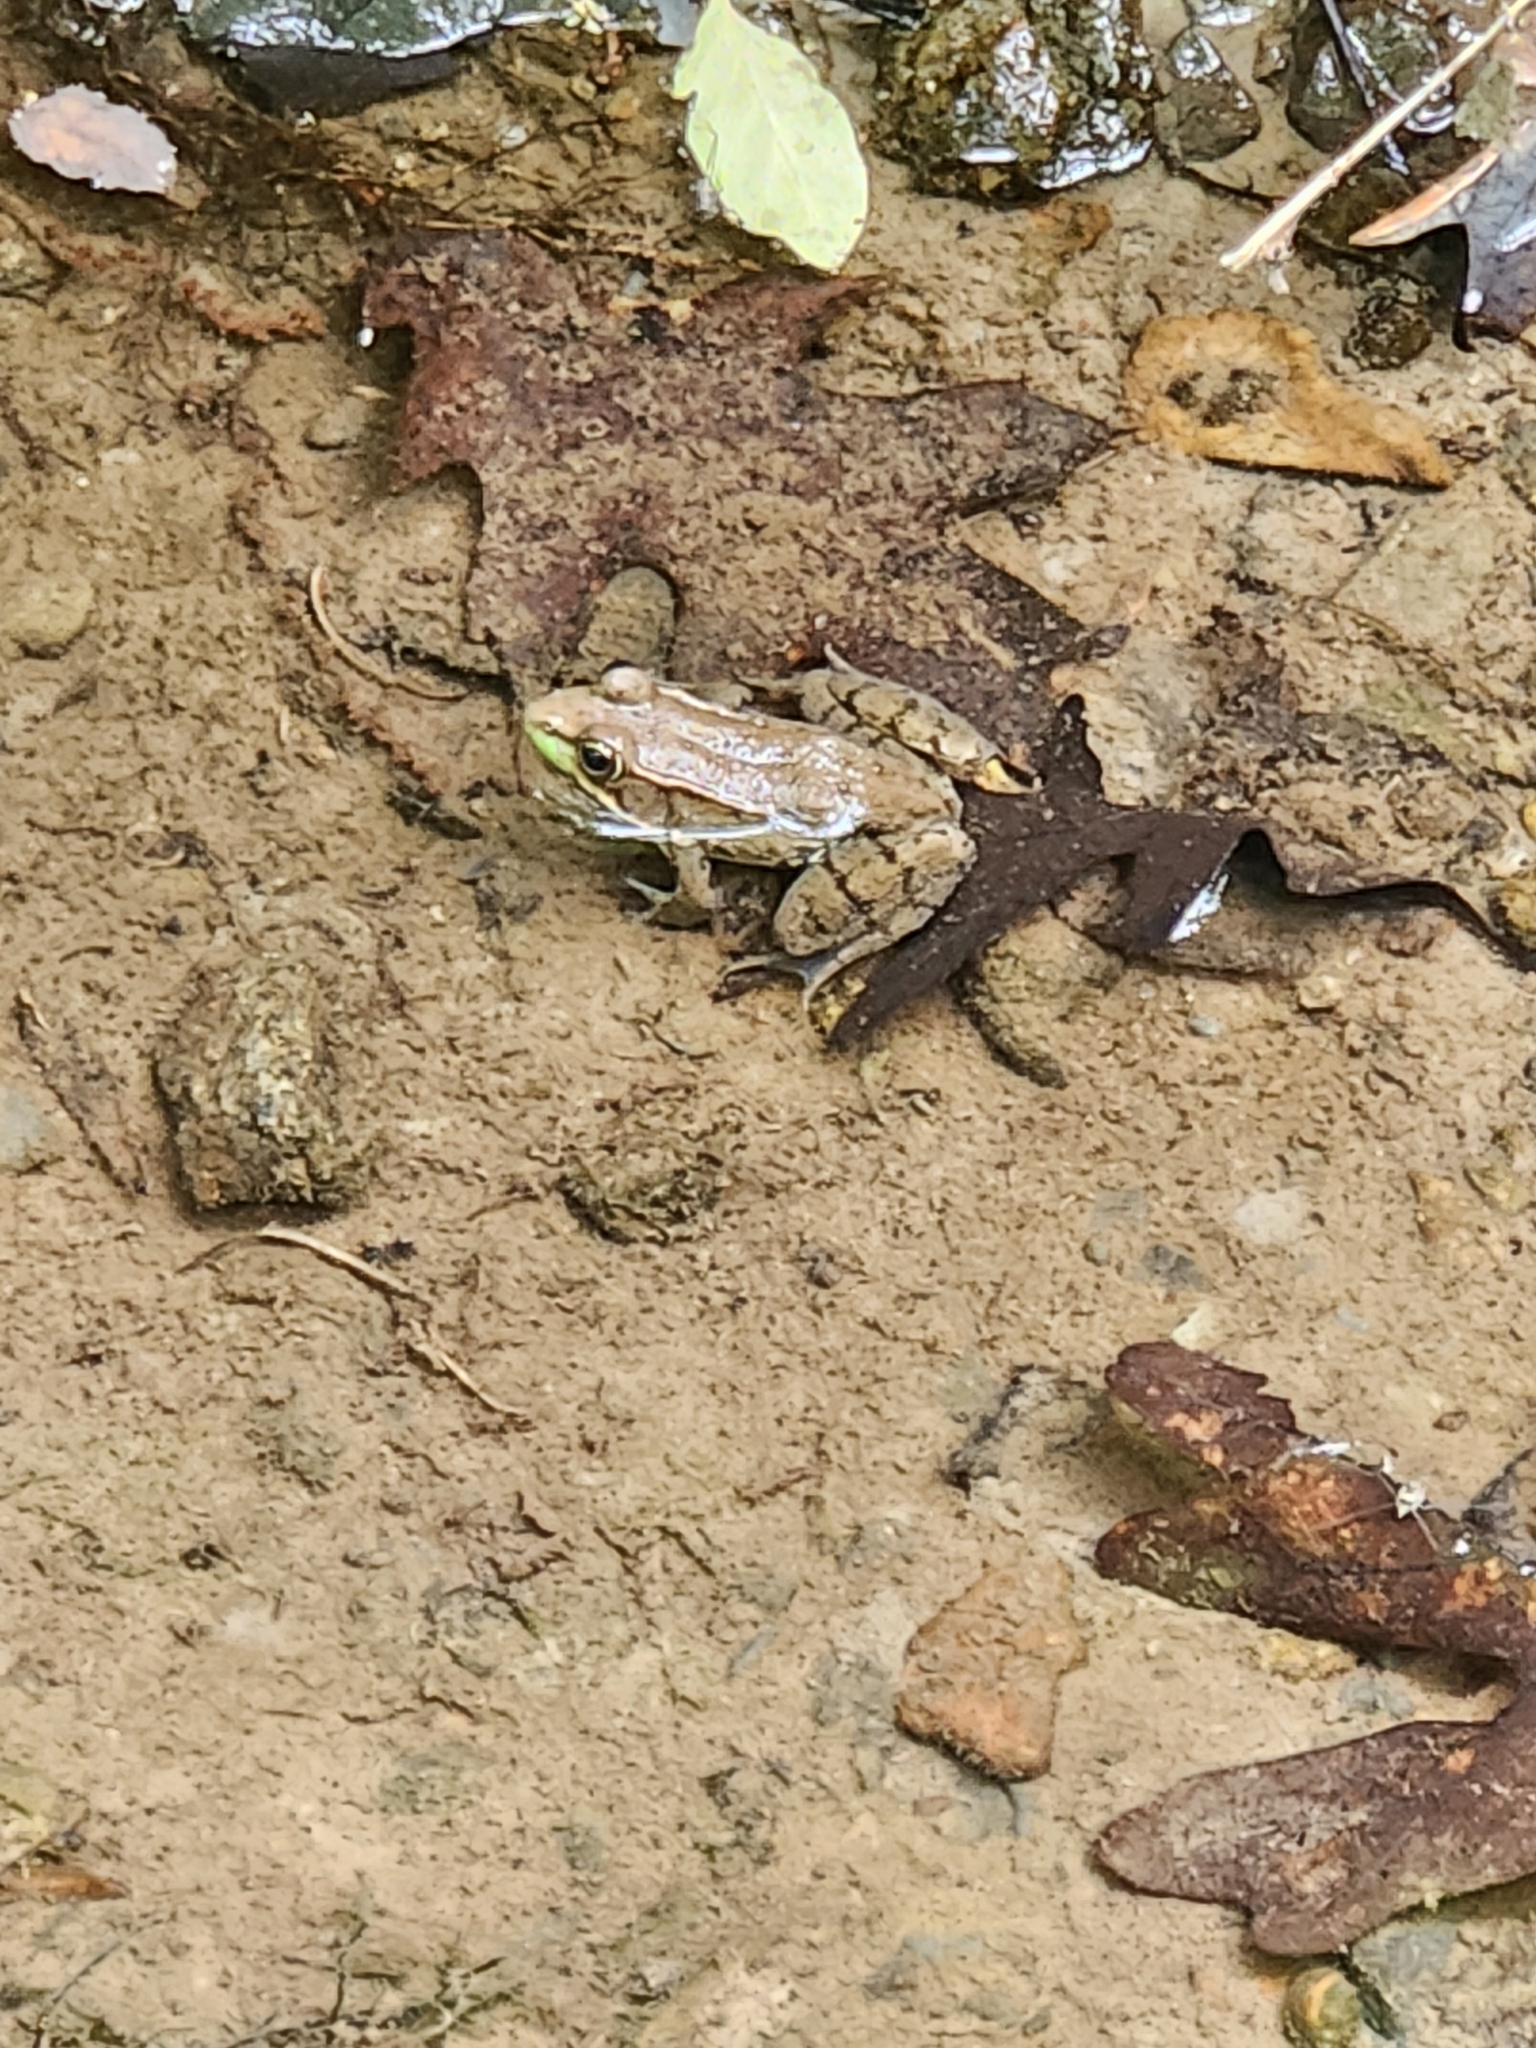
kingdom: Animalia
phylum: Chordata
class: Amphibia
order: Anura
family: Ranidae
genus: Lithobates
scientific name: Lithobates clamitans
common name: Green frog
